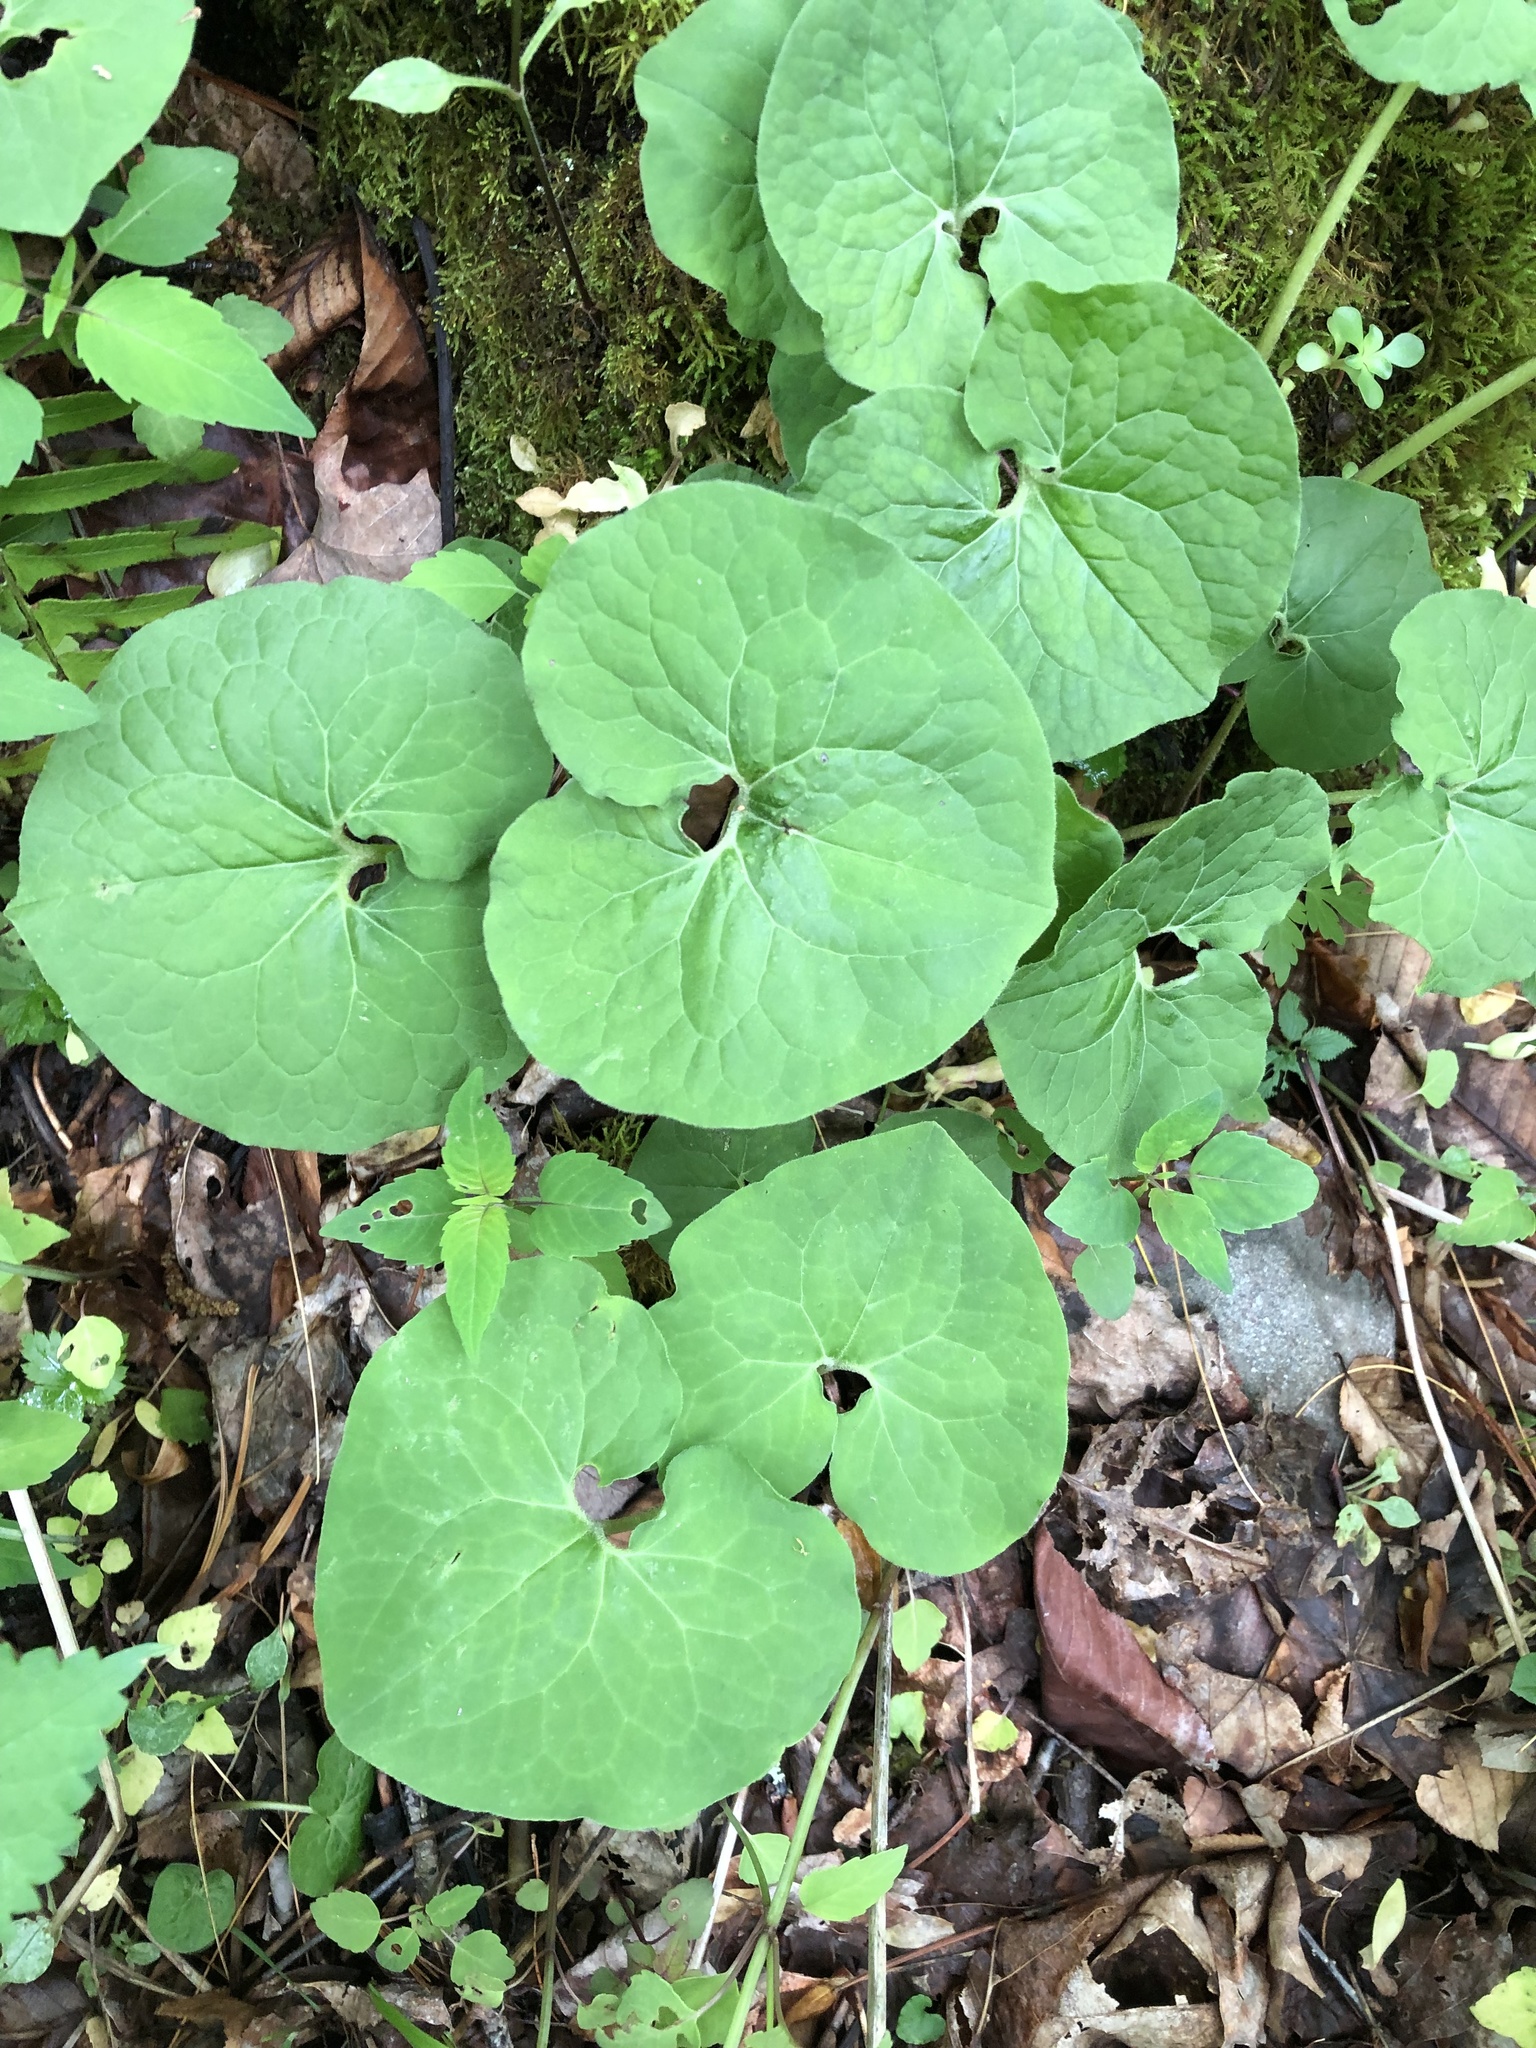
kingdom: Plantae
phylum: Tracheophyta
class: Magnoliopsida
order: Piperales
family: Aristolochiaceae
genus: Asarum
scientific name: Asarum canadense
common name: Wild ginger
